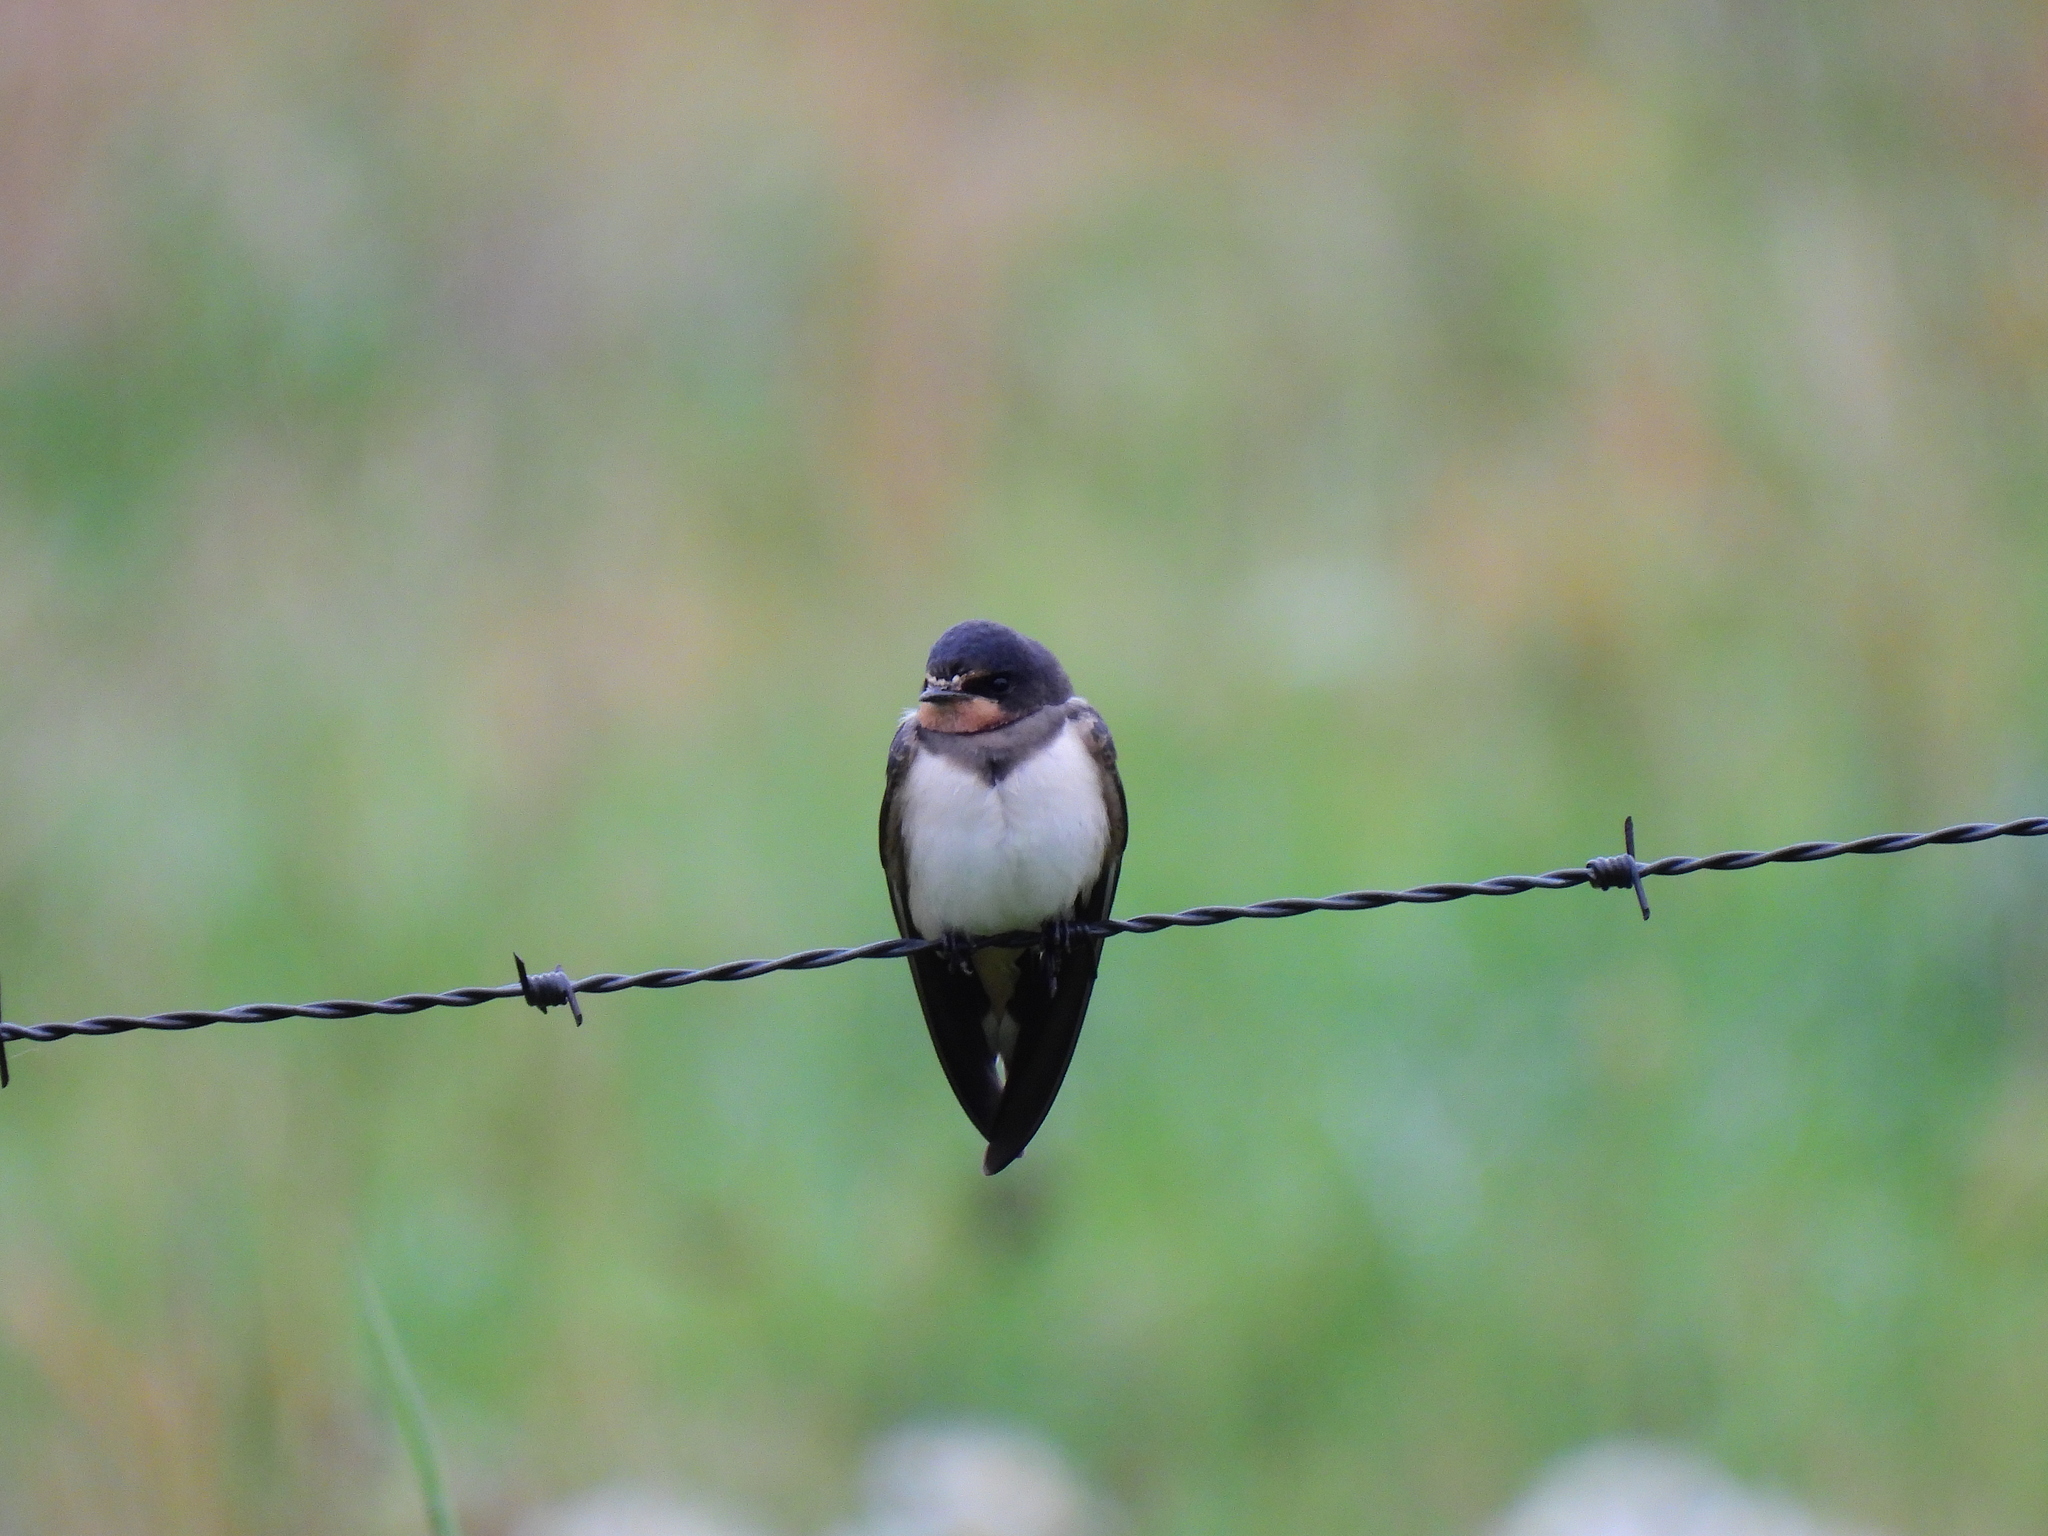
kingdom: Animalia
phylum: Chordata
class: Aves
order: Passeriformes
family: Hirundinidae
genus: Hirundo
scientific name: Hirundo rustica
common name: Barn swallow
